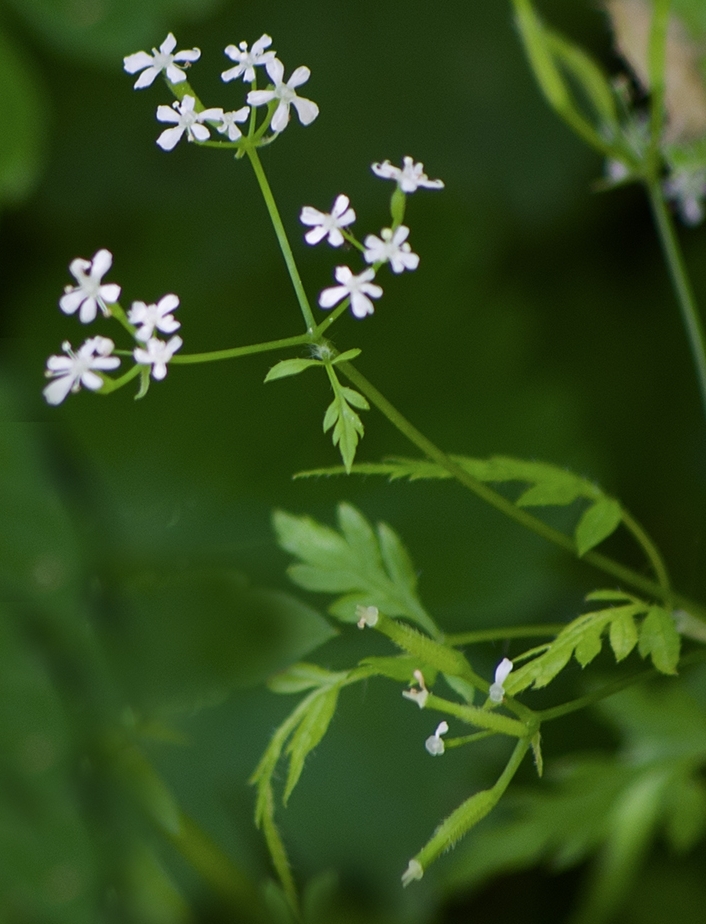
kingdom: Plantae
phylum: Tracheophyta
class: Magnoliopsida
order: Apiales
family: Apiaceae
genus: Anthriscus
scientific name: Anthriscus cerefolium
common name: Garden chervil
